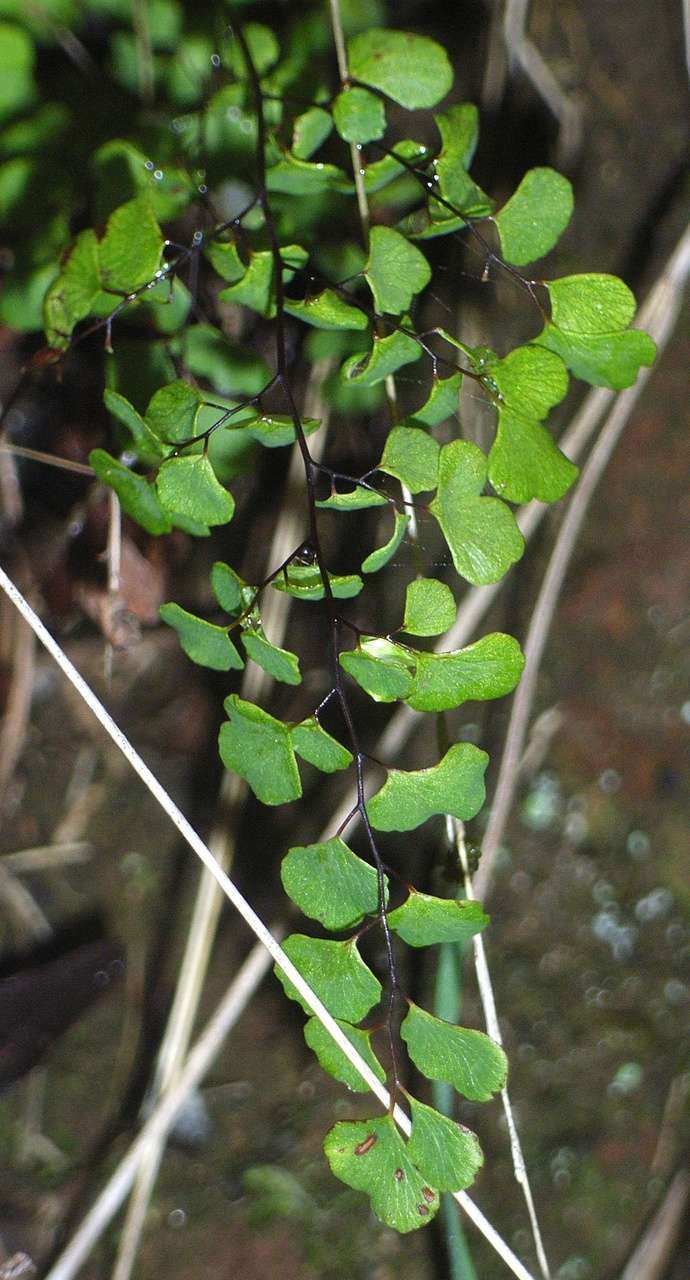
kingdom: Plantae
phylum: Tracheophyta
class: Polypodiopsida
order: Polypodiales
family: Pteridaceae
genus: Adiantum
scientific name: Adiantum aethiopicum
